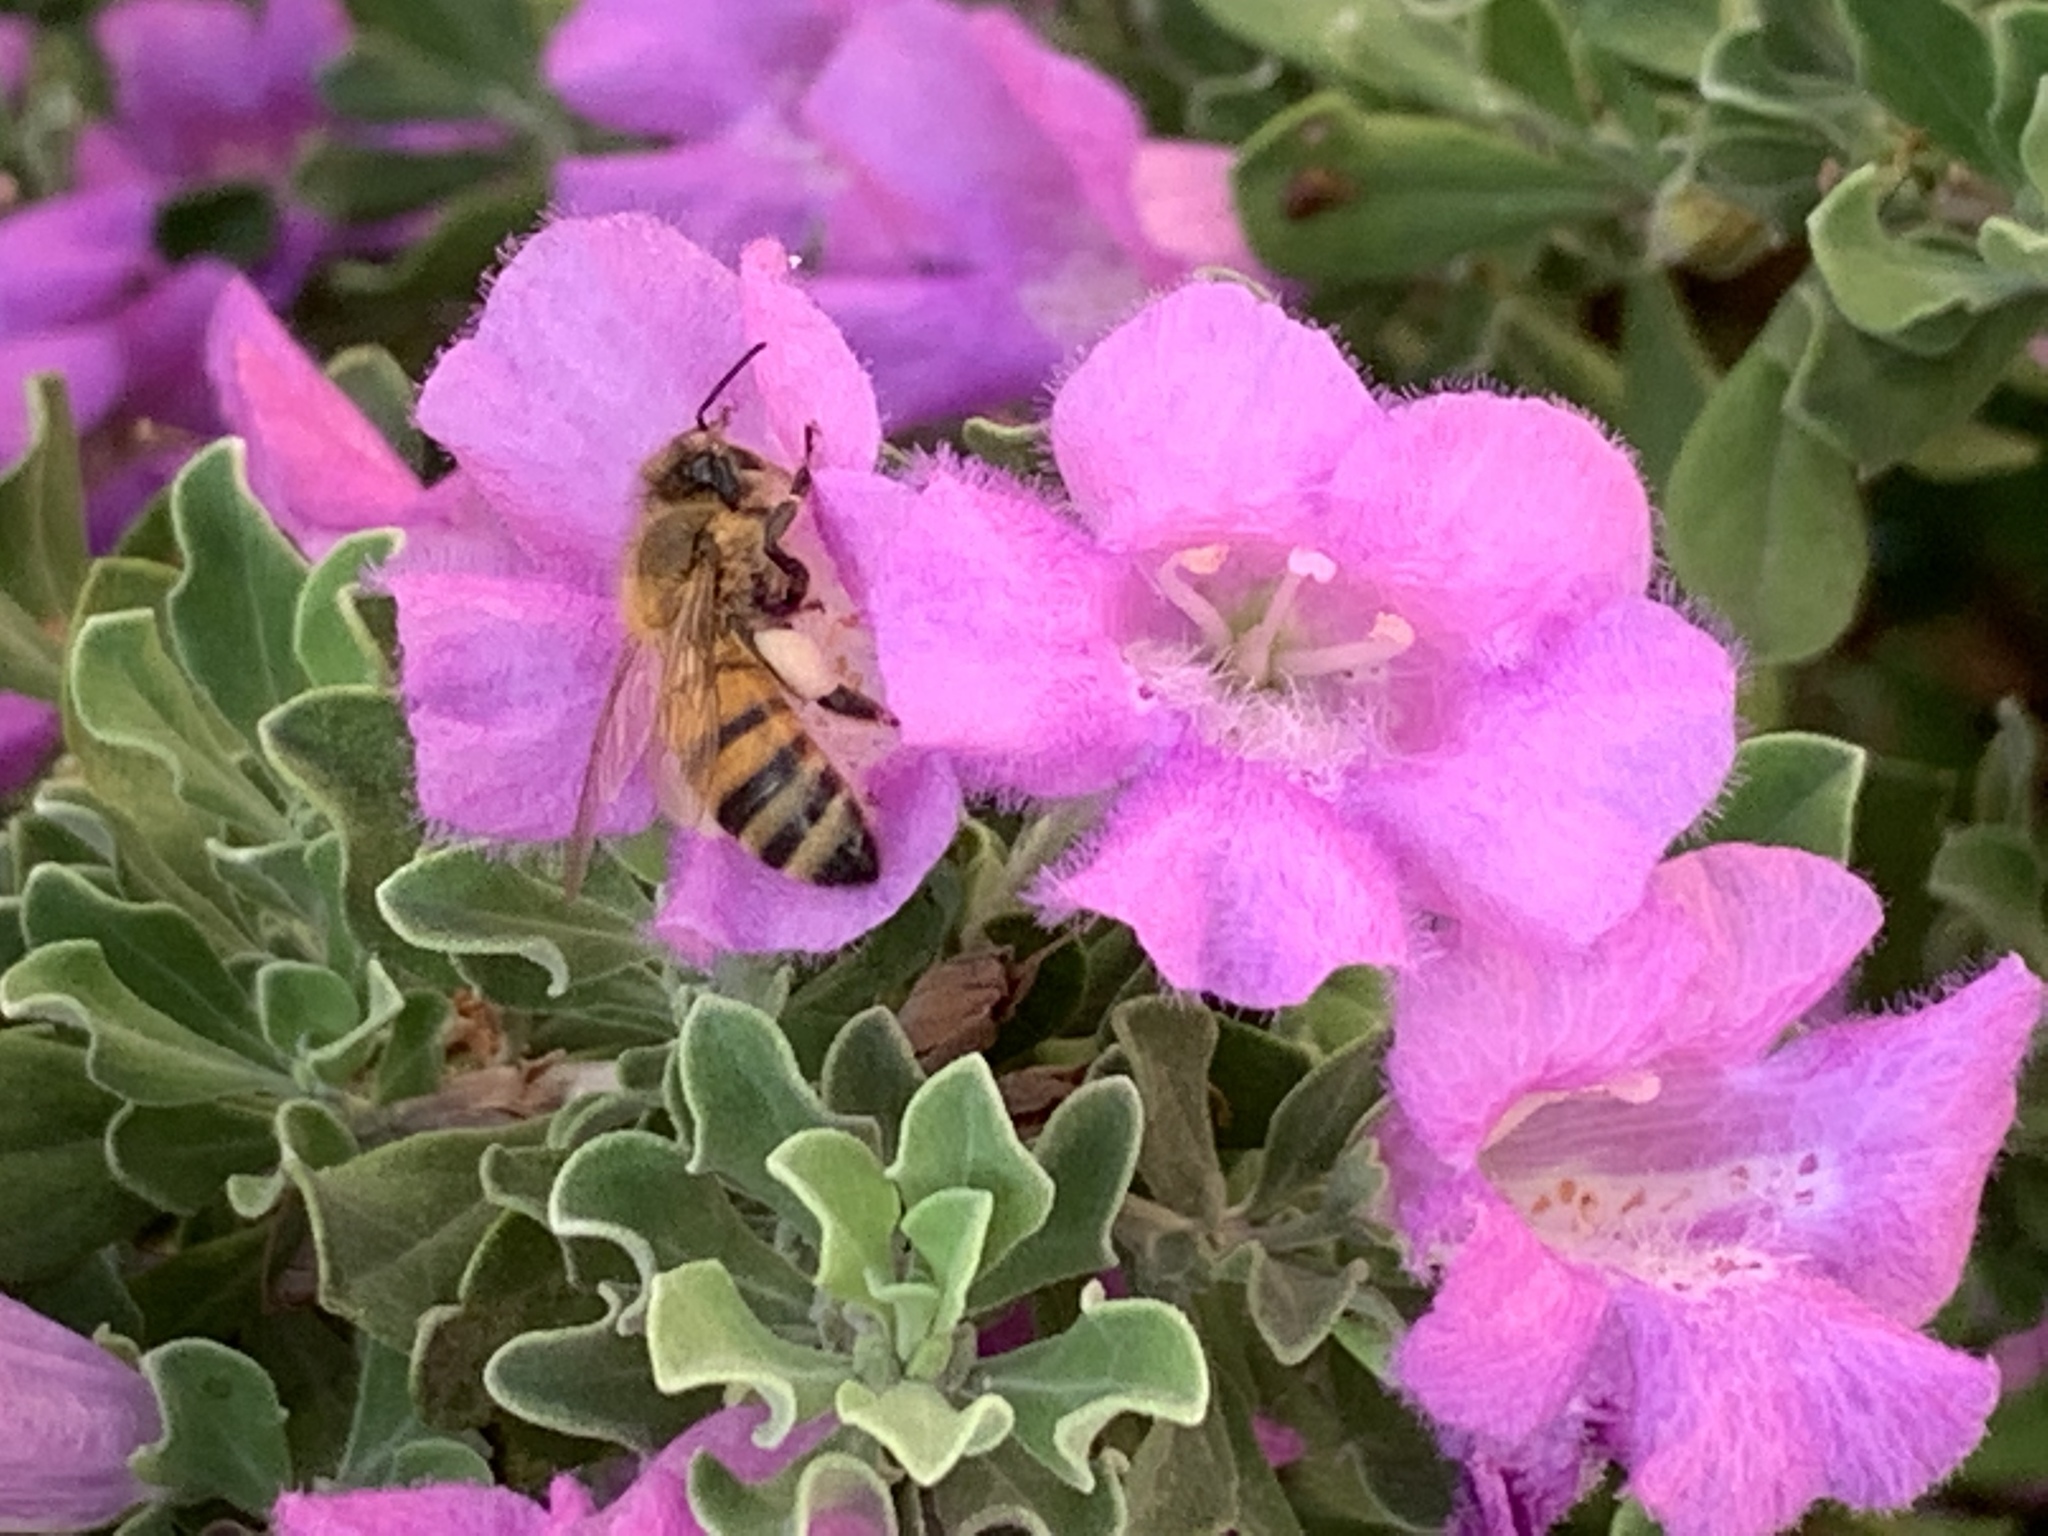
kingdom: Animalia
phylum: Arthropoda
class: Insecta
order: Hymenoptera
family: Apidae
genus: Apis
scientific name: Apis mellifera
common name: Honey bee
